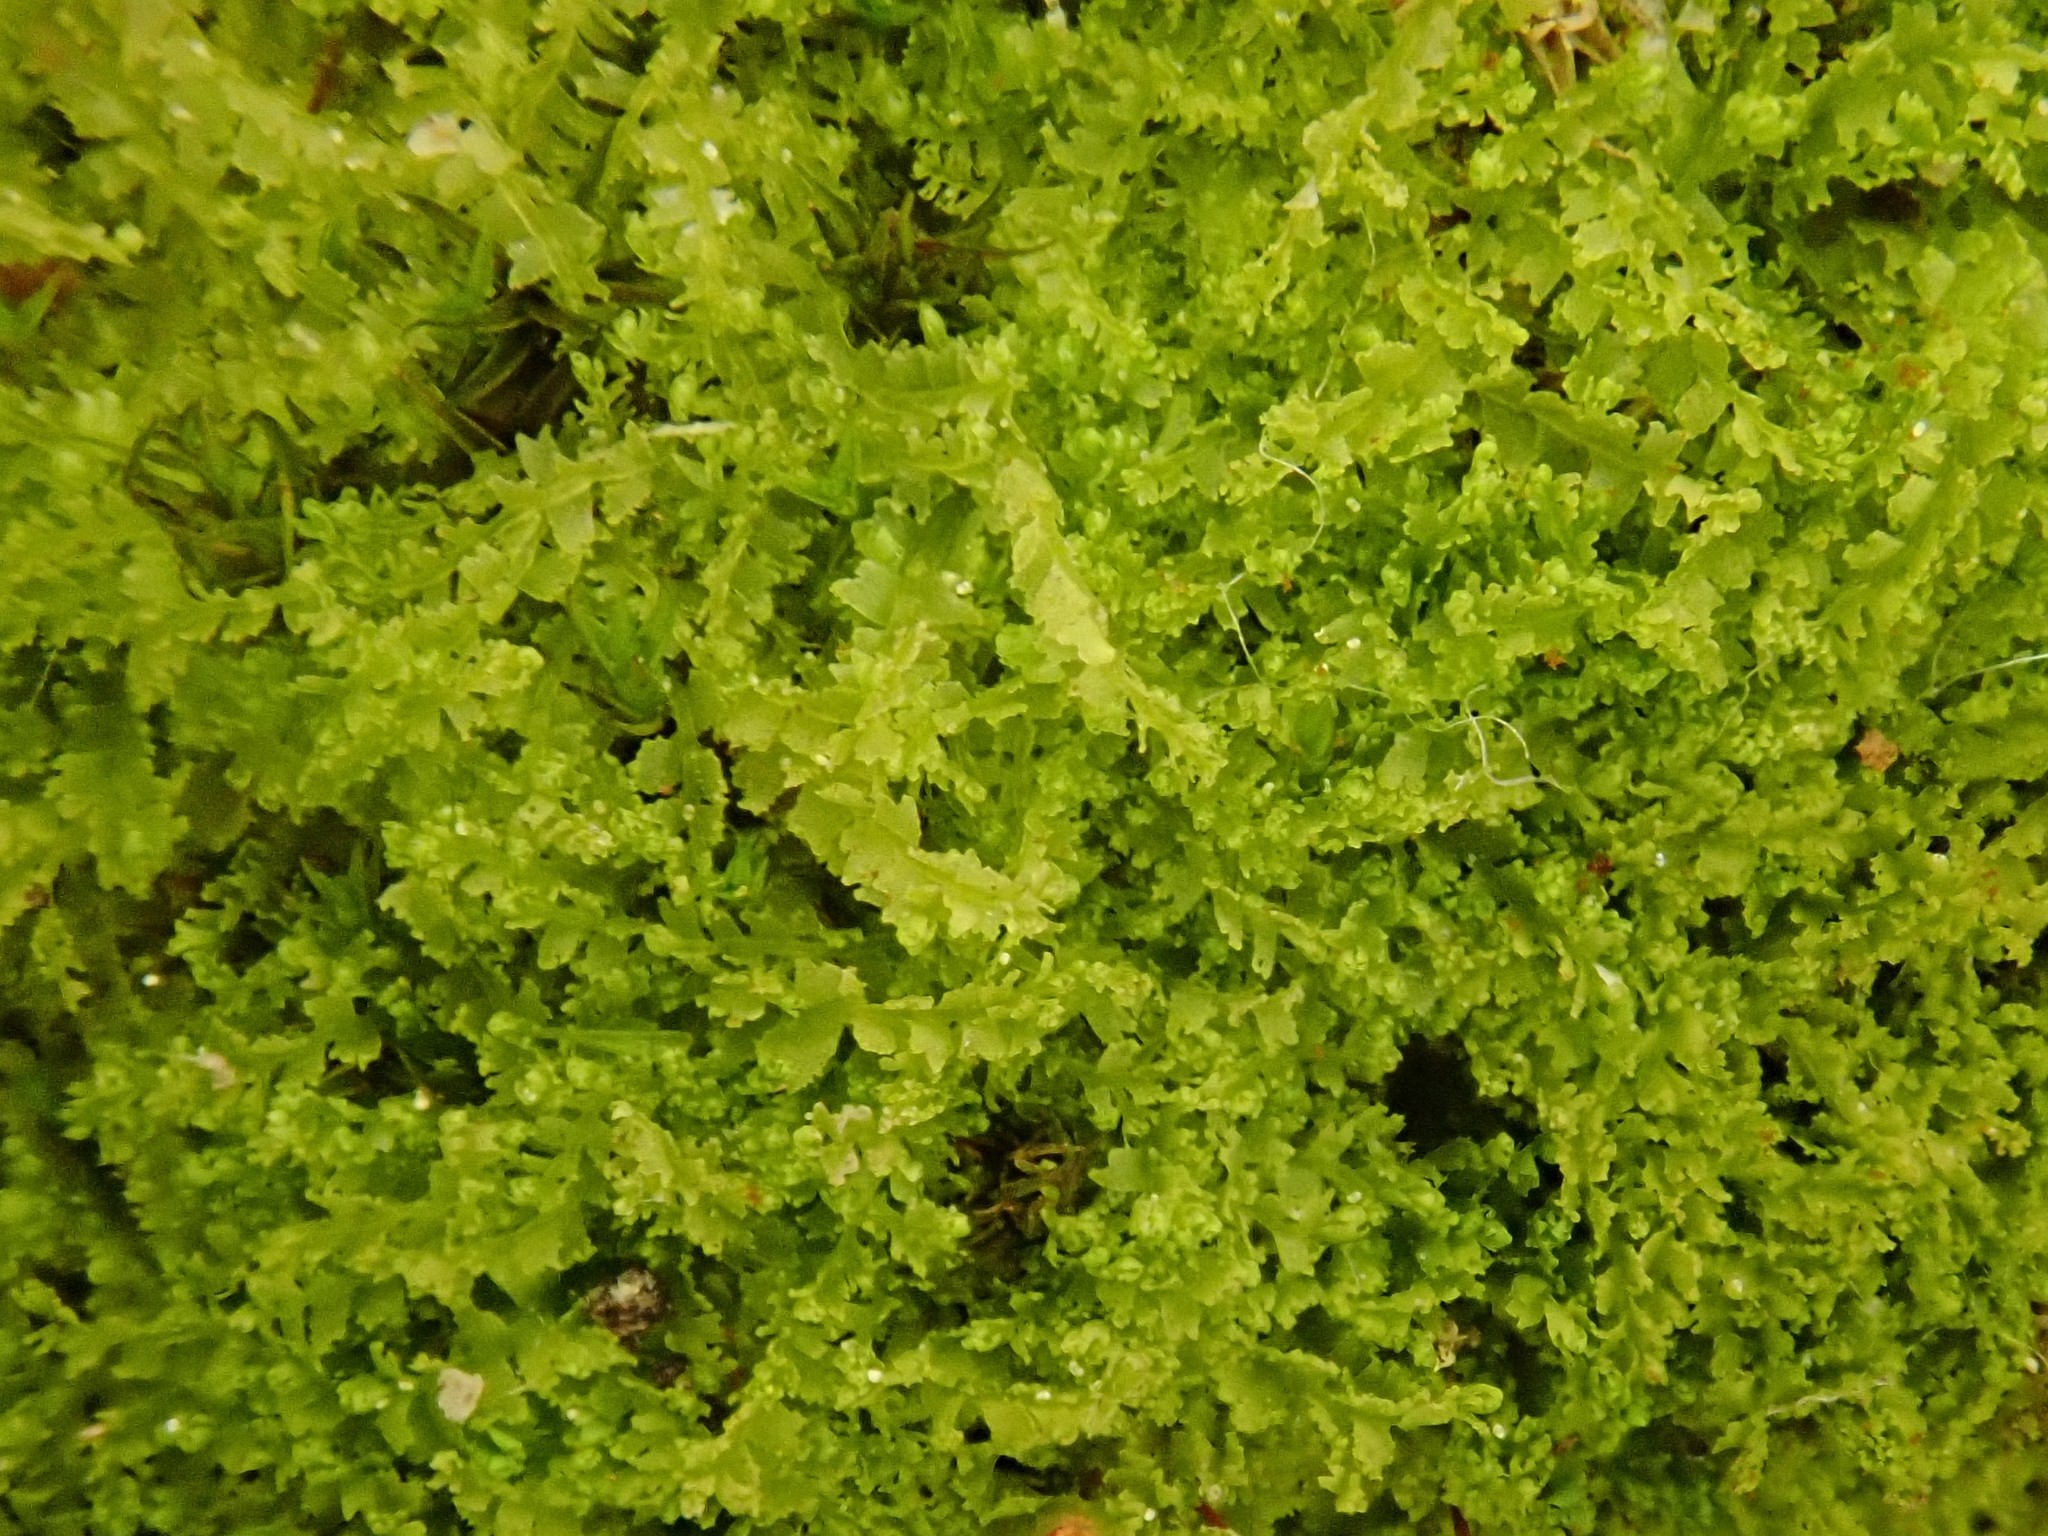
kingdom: Plantae
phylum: Marchantiophyta
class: Jungermanniopsida
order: Jungermanniales
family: Lophocoleaceae
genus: Lophocolea
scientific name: Lophocolea minor
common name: Lesser crestwort
